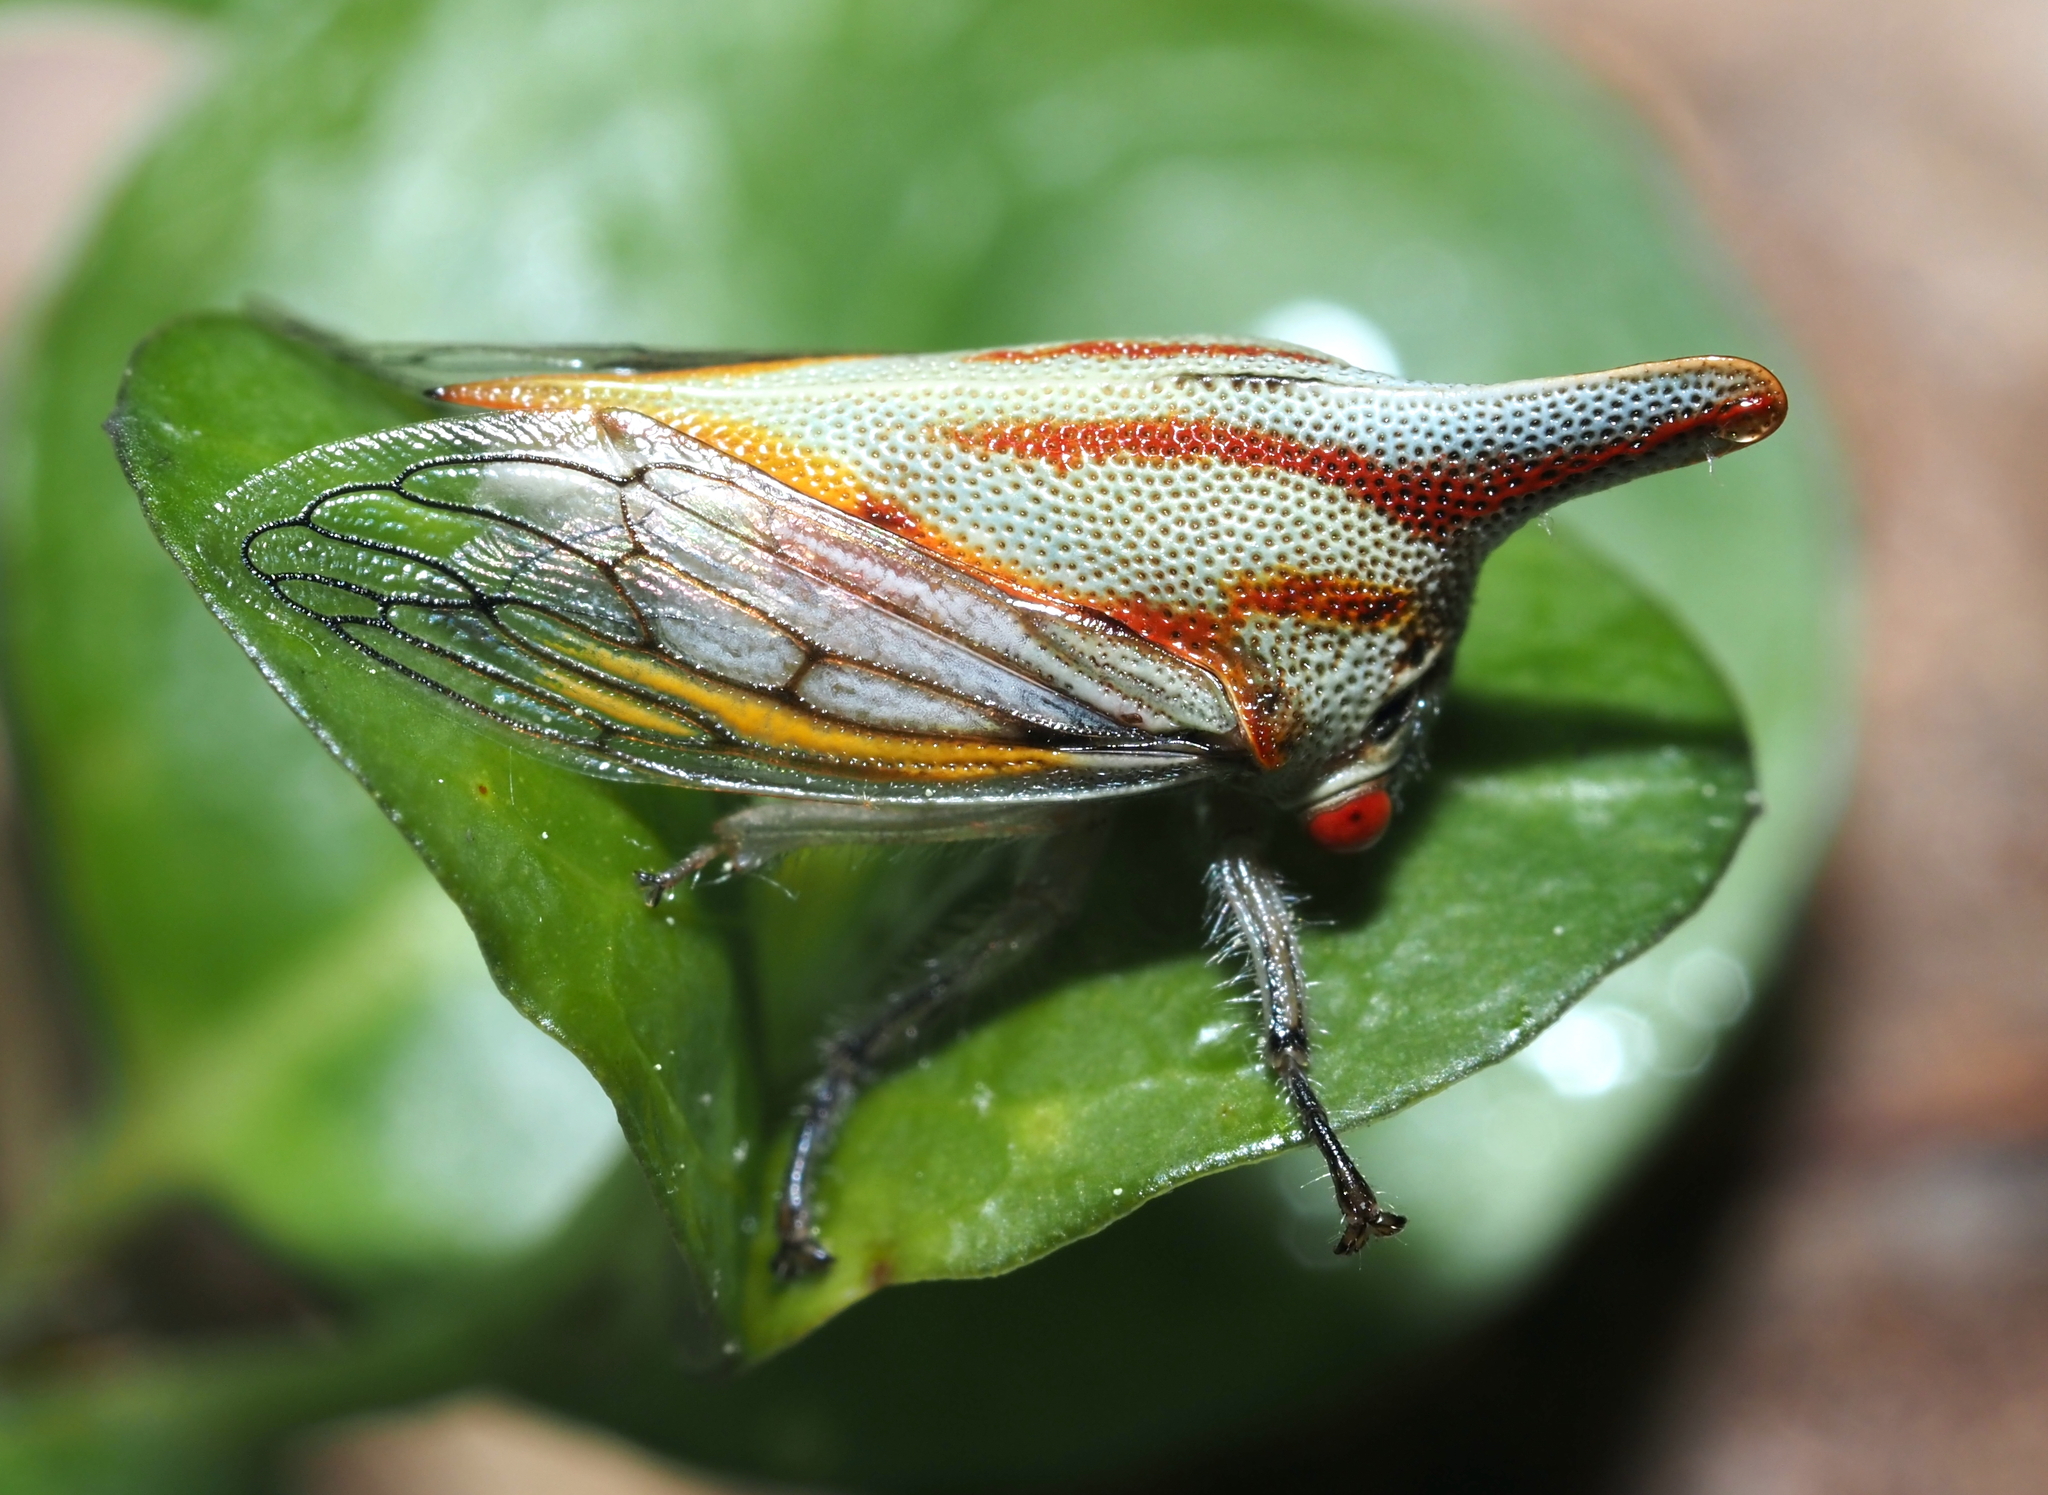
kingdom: Animalia
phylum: Arthropoda
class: Insecta
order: Hemiptera
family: Membracidae
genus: Platycotis
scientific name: Platycotis vittatus
